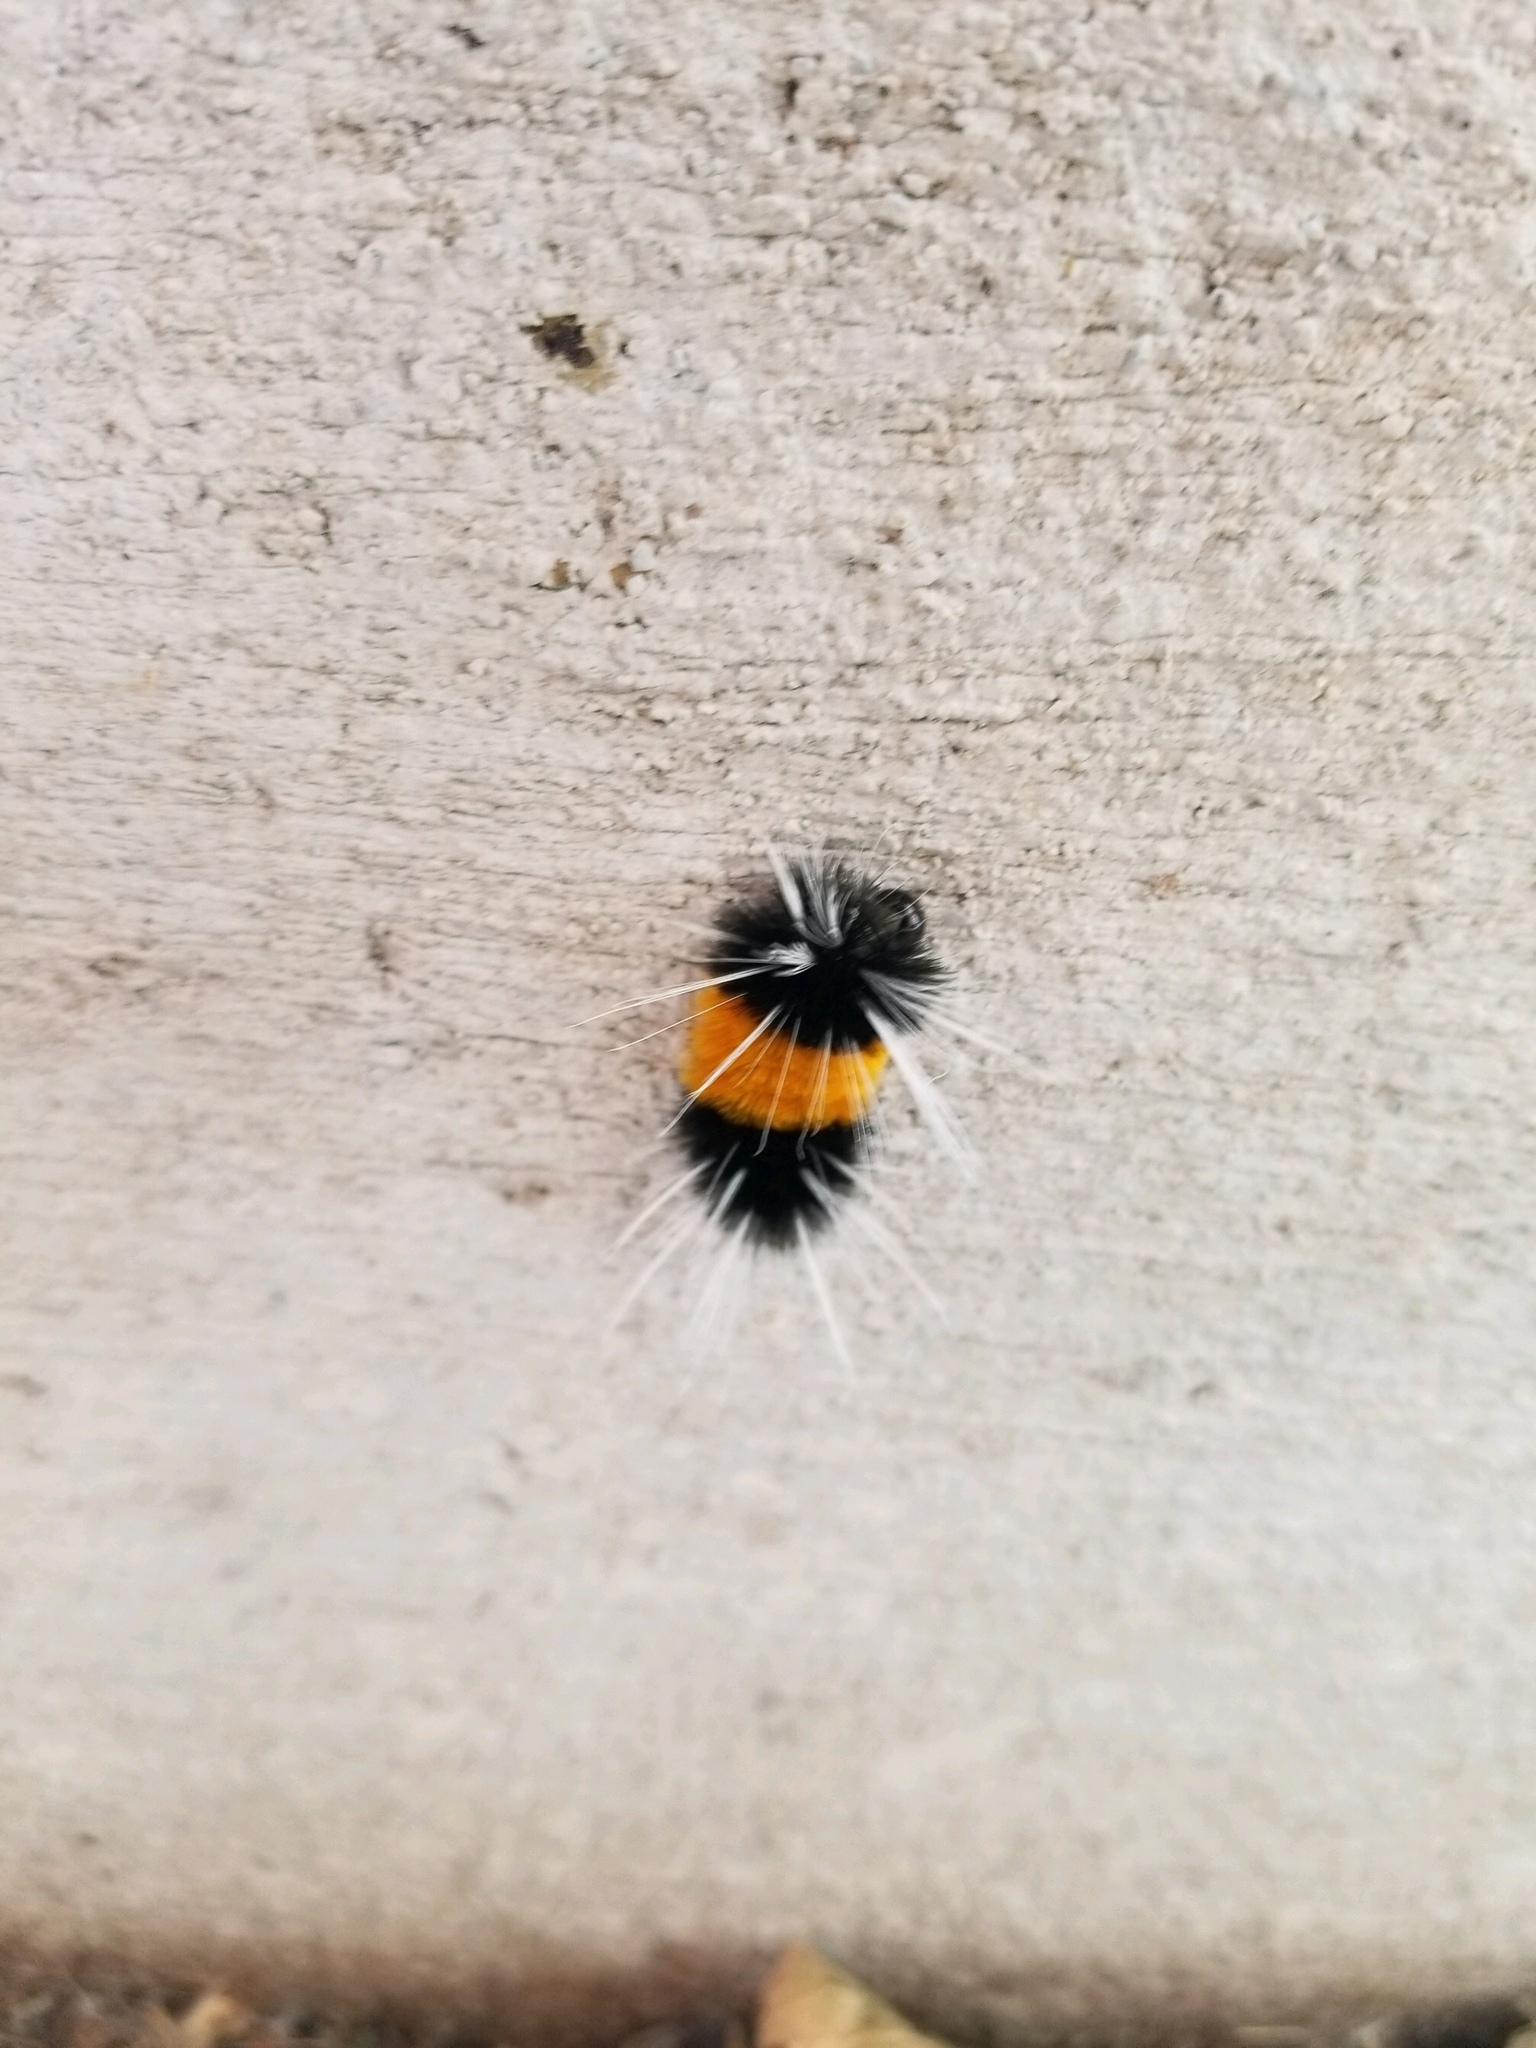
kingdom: Animalia
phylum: Arthropoda
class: Insecta
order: Lepidoptera
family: Erebidae
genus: Lophocampa
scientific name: Lophocampa maculata
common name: Spotted tussock moth
